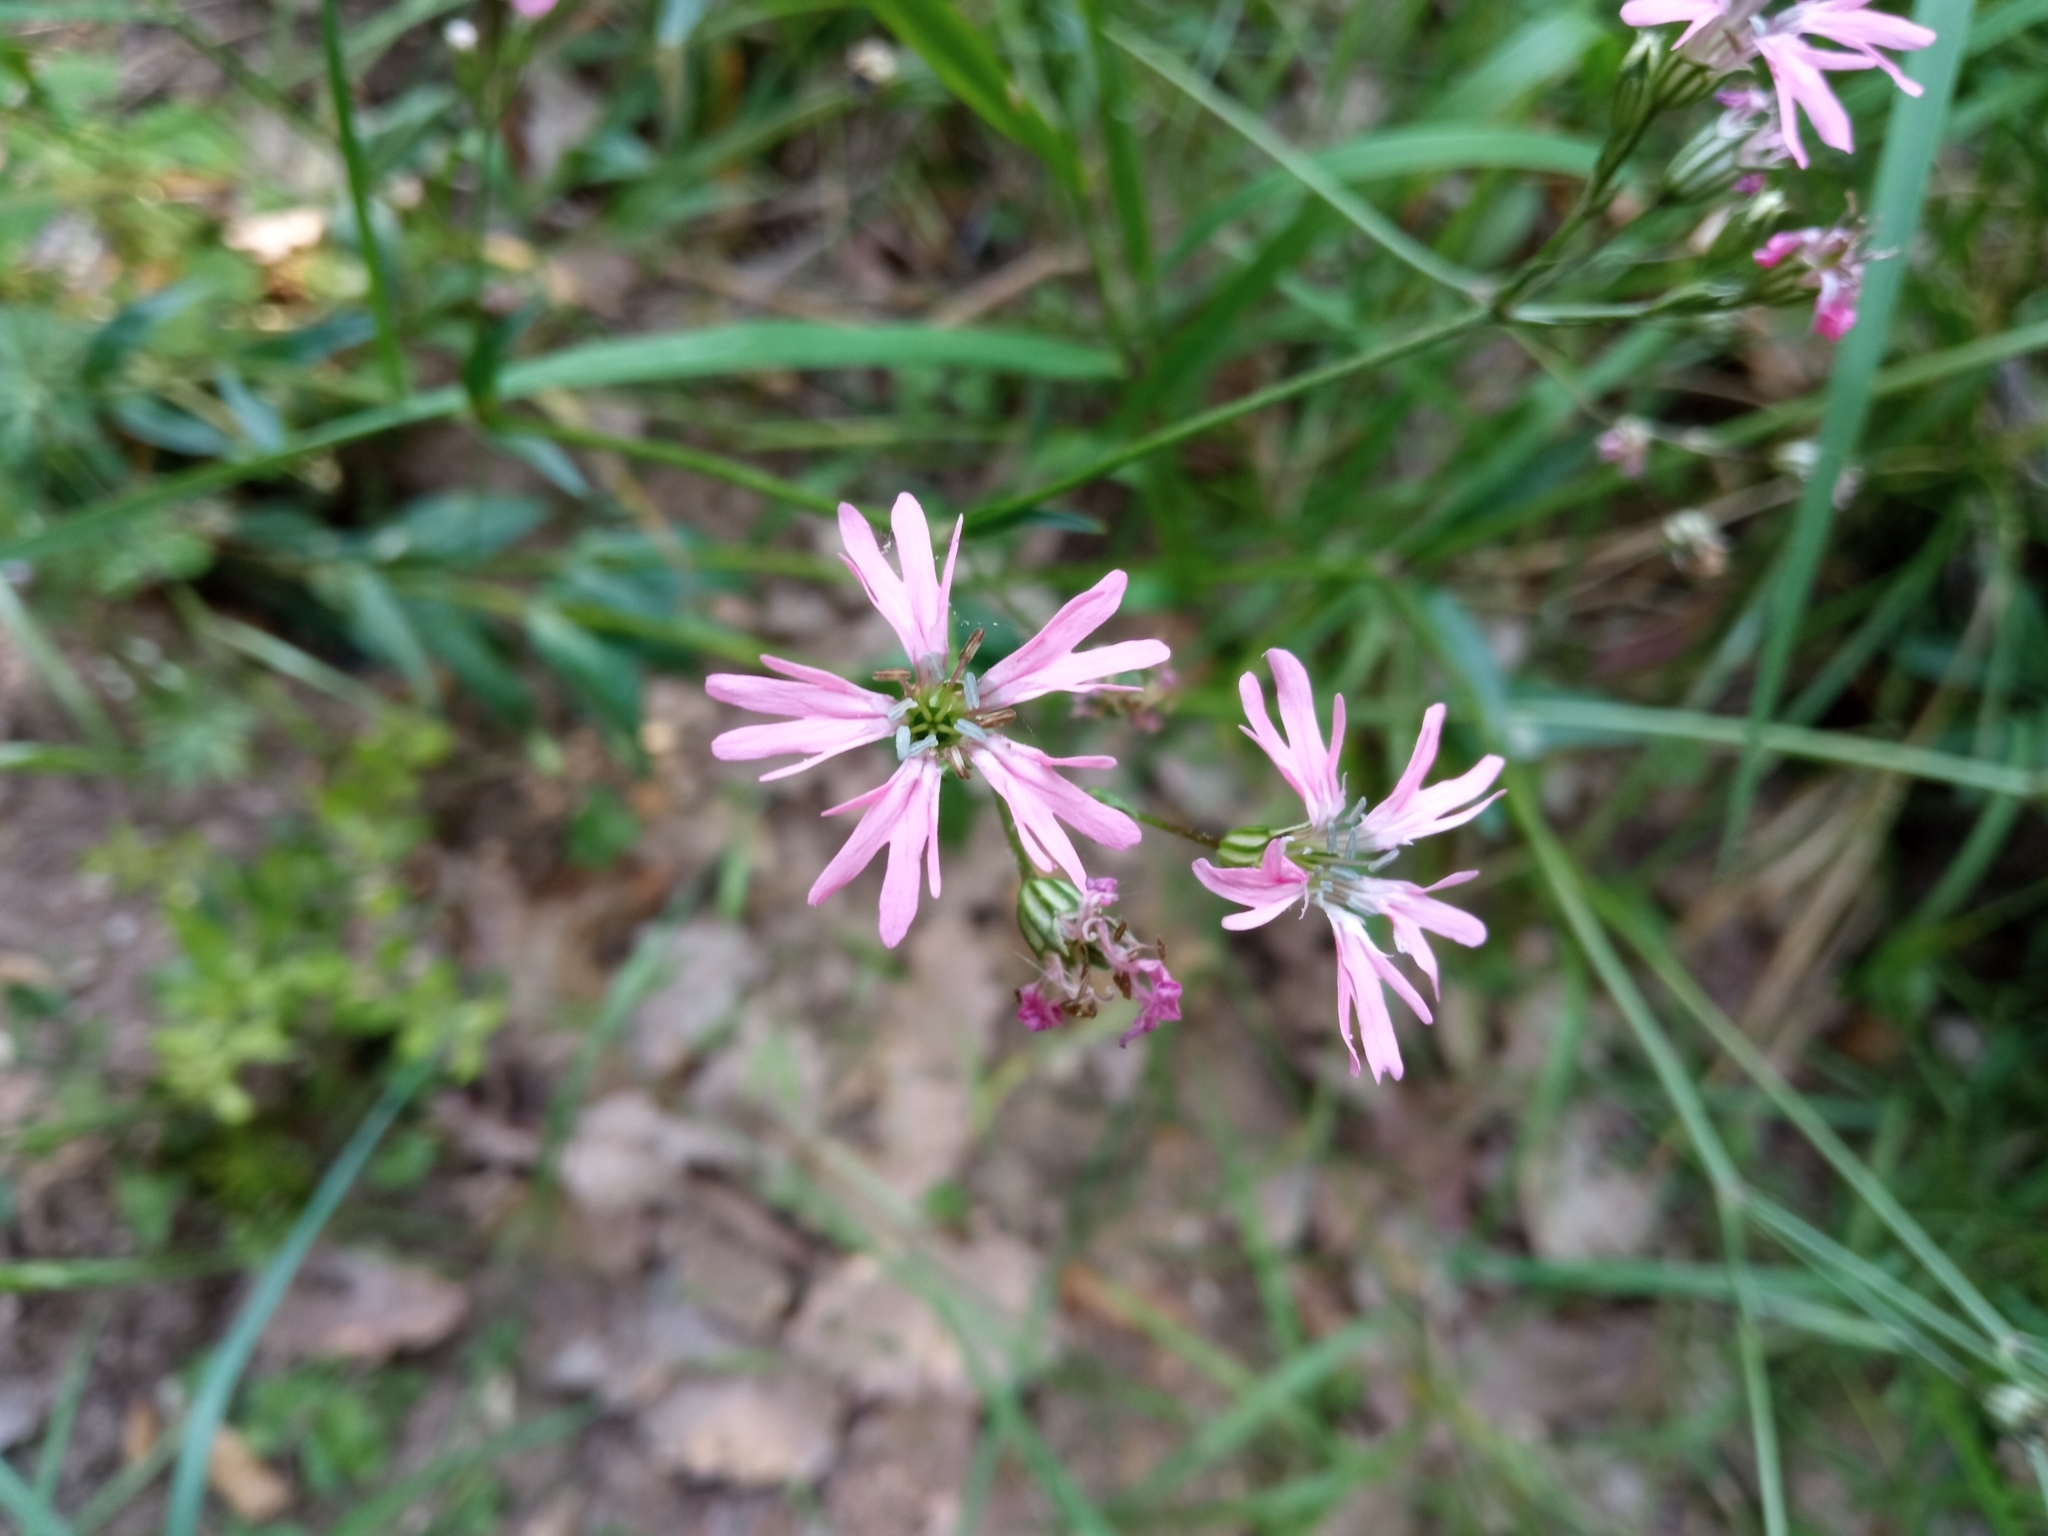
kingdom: Plantae
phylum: Tracheophyta
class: Magnoliopsida
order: Caryophyllales
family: Caryophyllaceae
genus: Silene
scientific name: Silene flos-cuculi
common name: Ragged-robin
